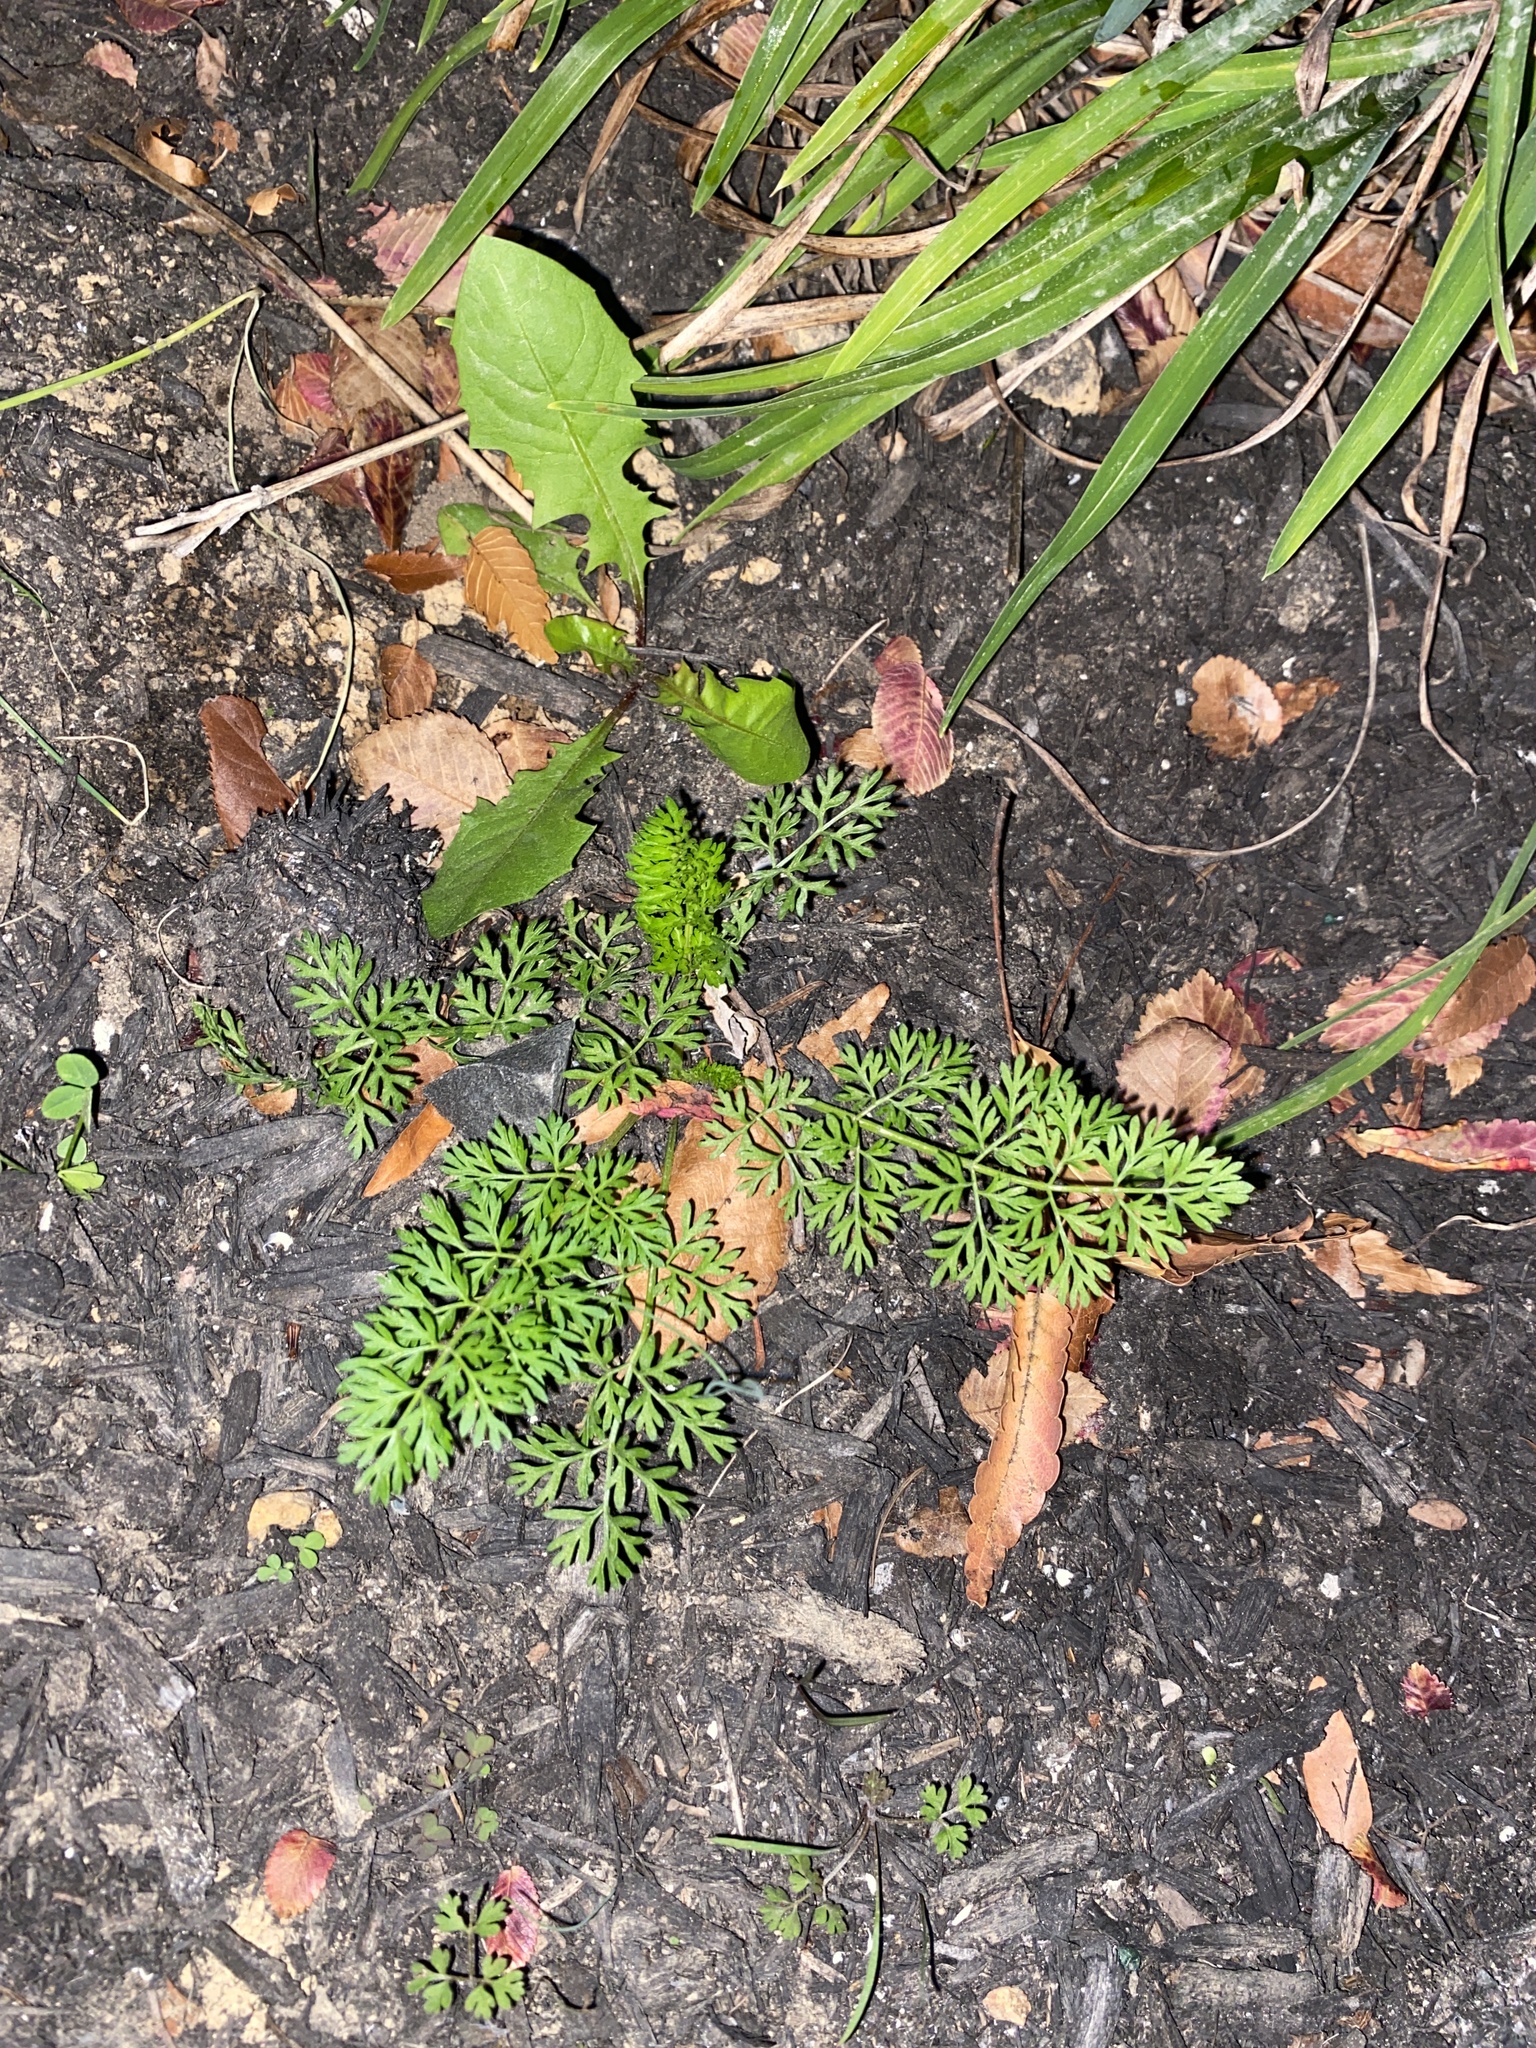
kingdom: Plantae
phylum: Tracheophyta
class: Magnoliopsida
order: Apiales
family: Apiaceae
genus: Daucus
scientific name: Daucus carota
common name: Wild carrot
